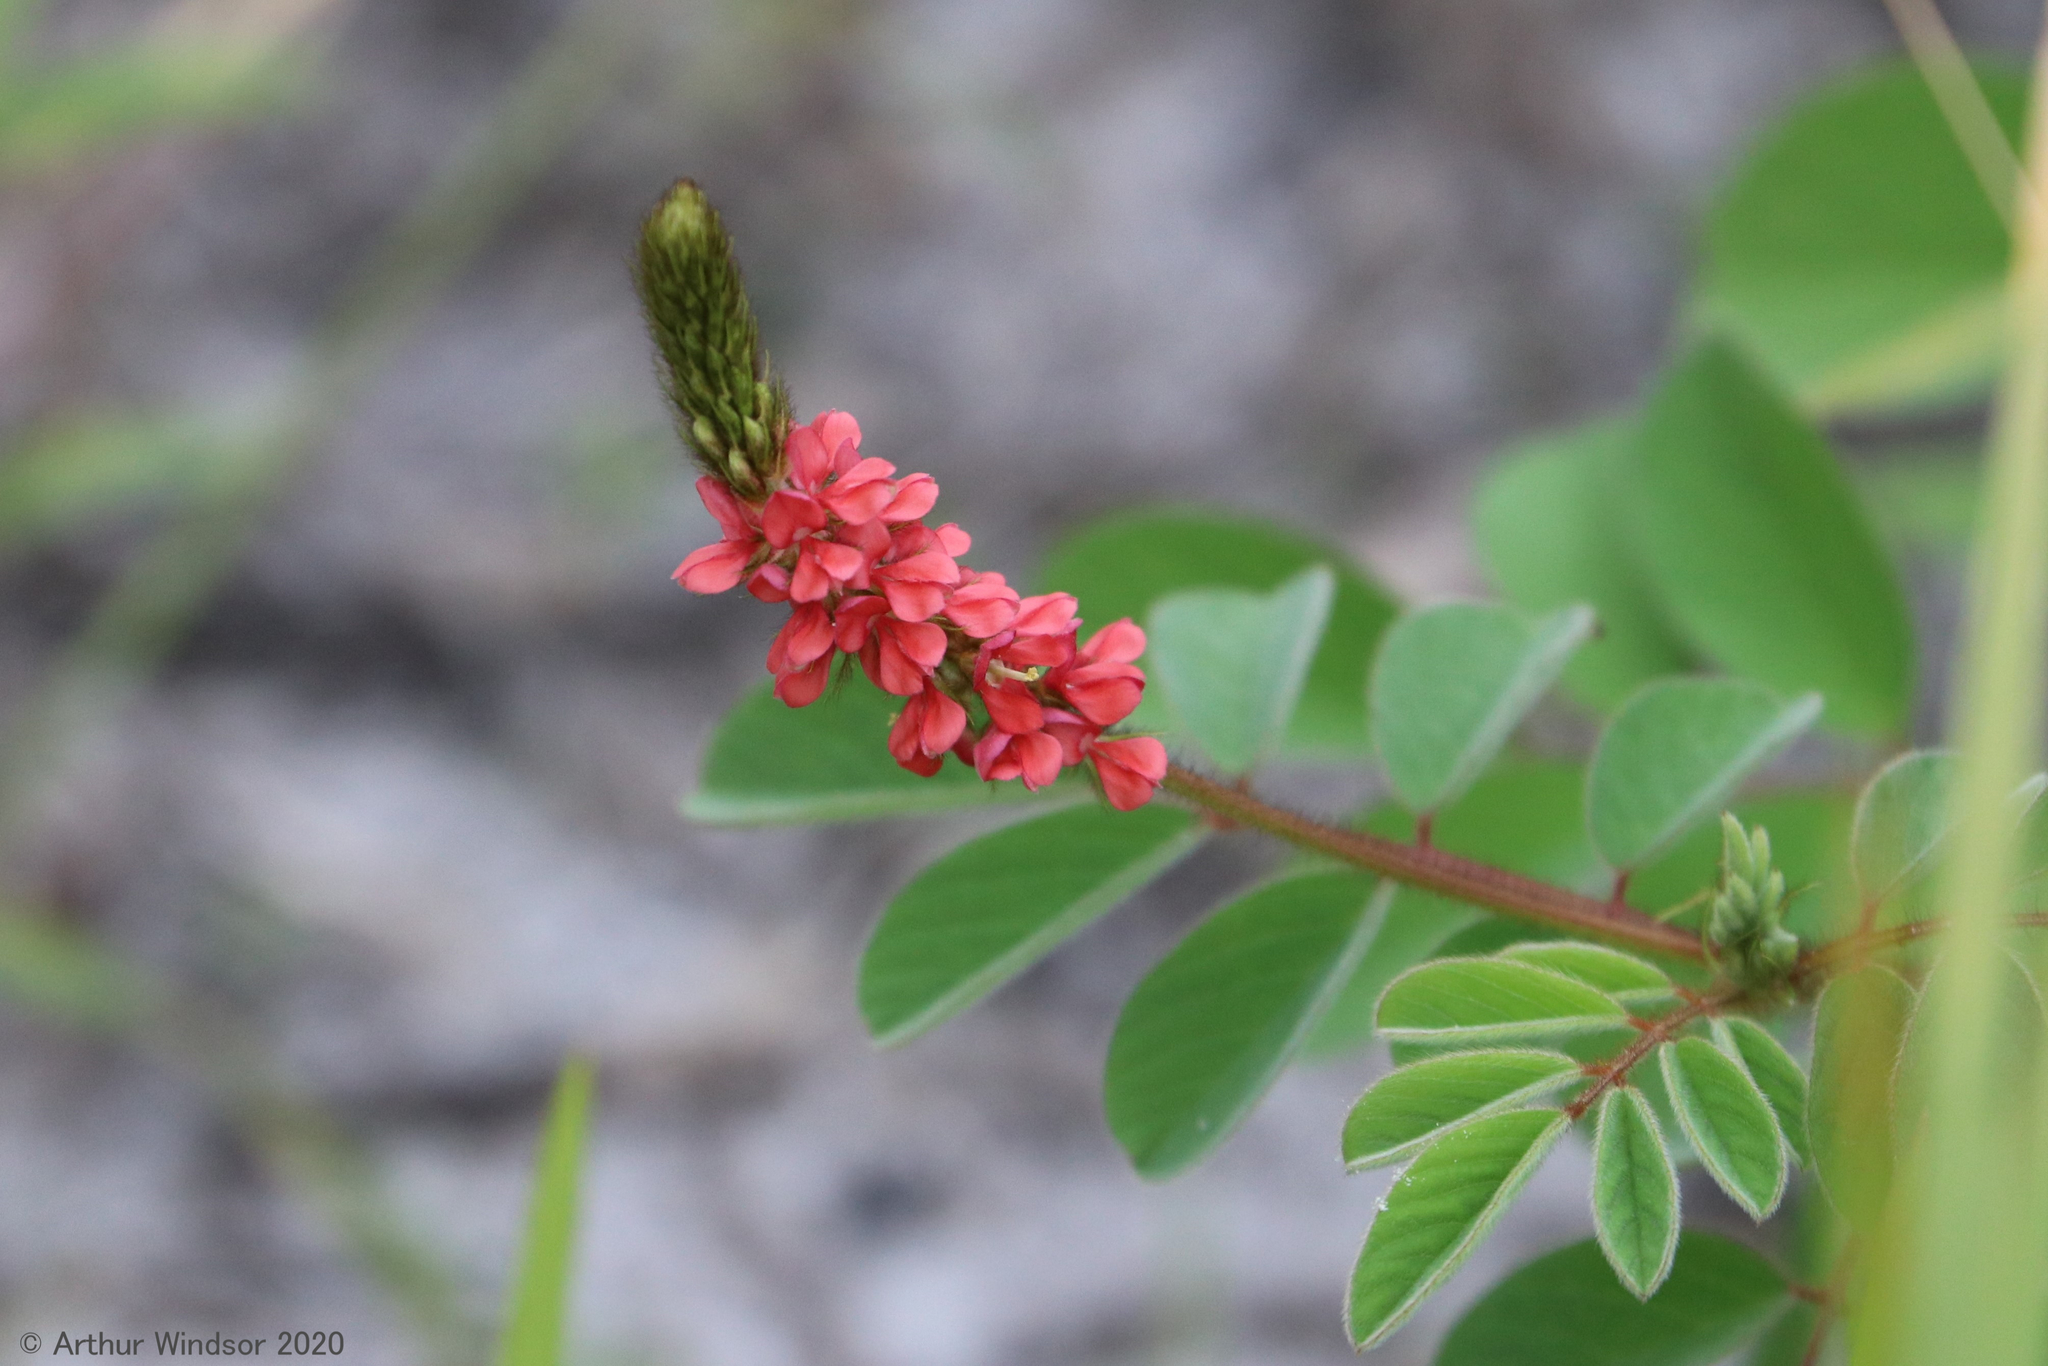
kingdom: Plantae
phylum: Tracheophyta
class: Magnoliopsida
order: Fabales
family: Fabaceae
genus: Indigofera
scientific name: Indigofera hirsuta
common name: Hairy indigo
